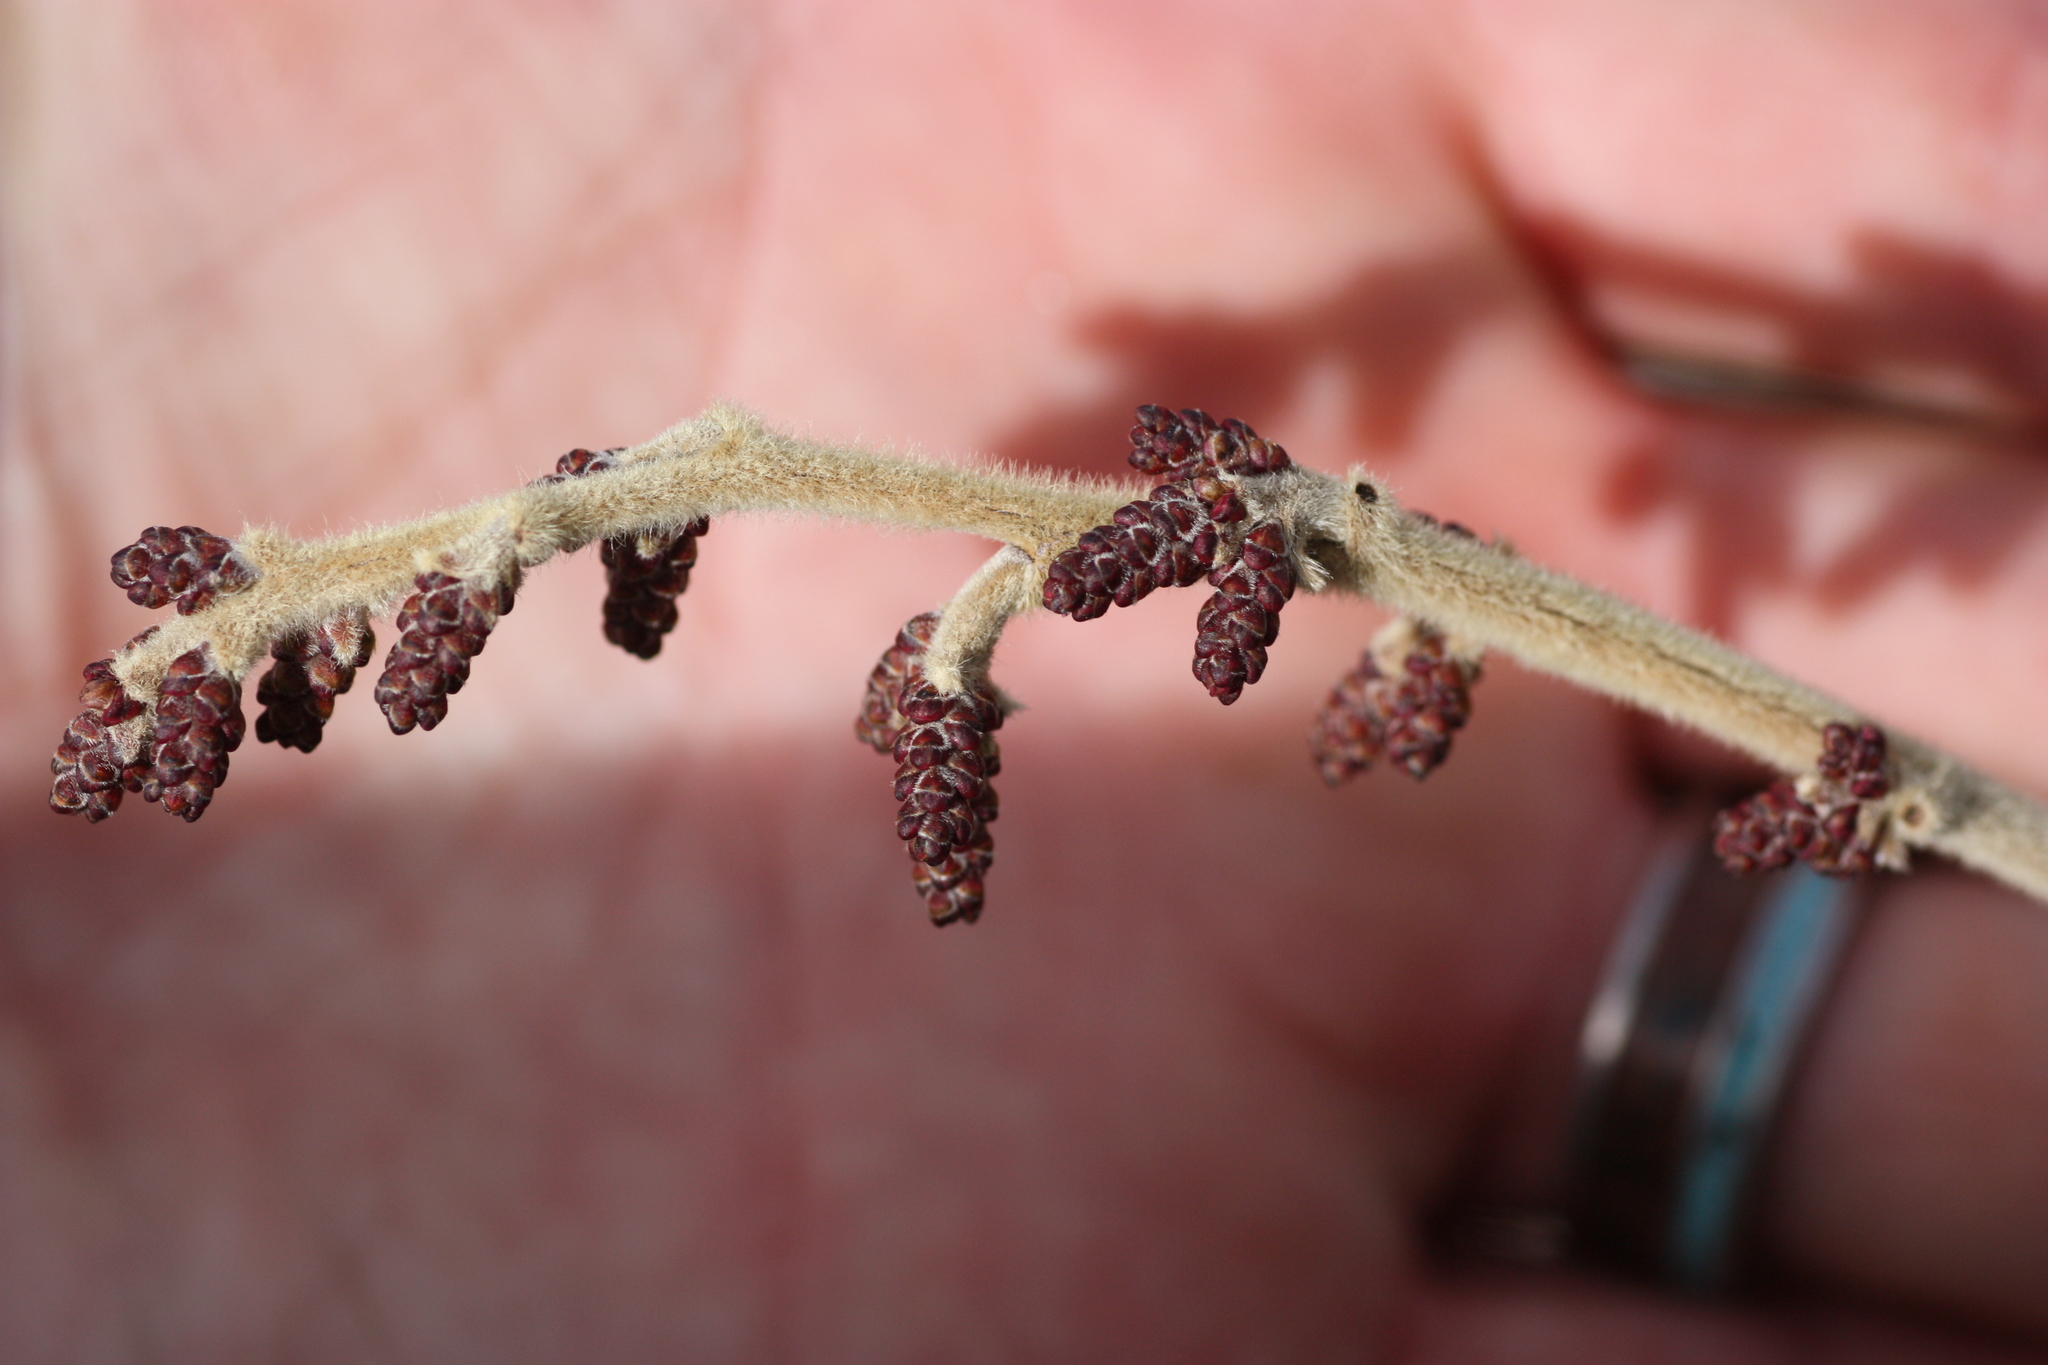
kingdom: Plantae
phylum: Tracheophyta
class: Magnoliopsida
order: Sapindales
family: Anacardiaceae
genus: Rhus
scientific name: Rhus aromatica
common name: Aromatic sumac
